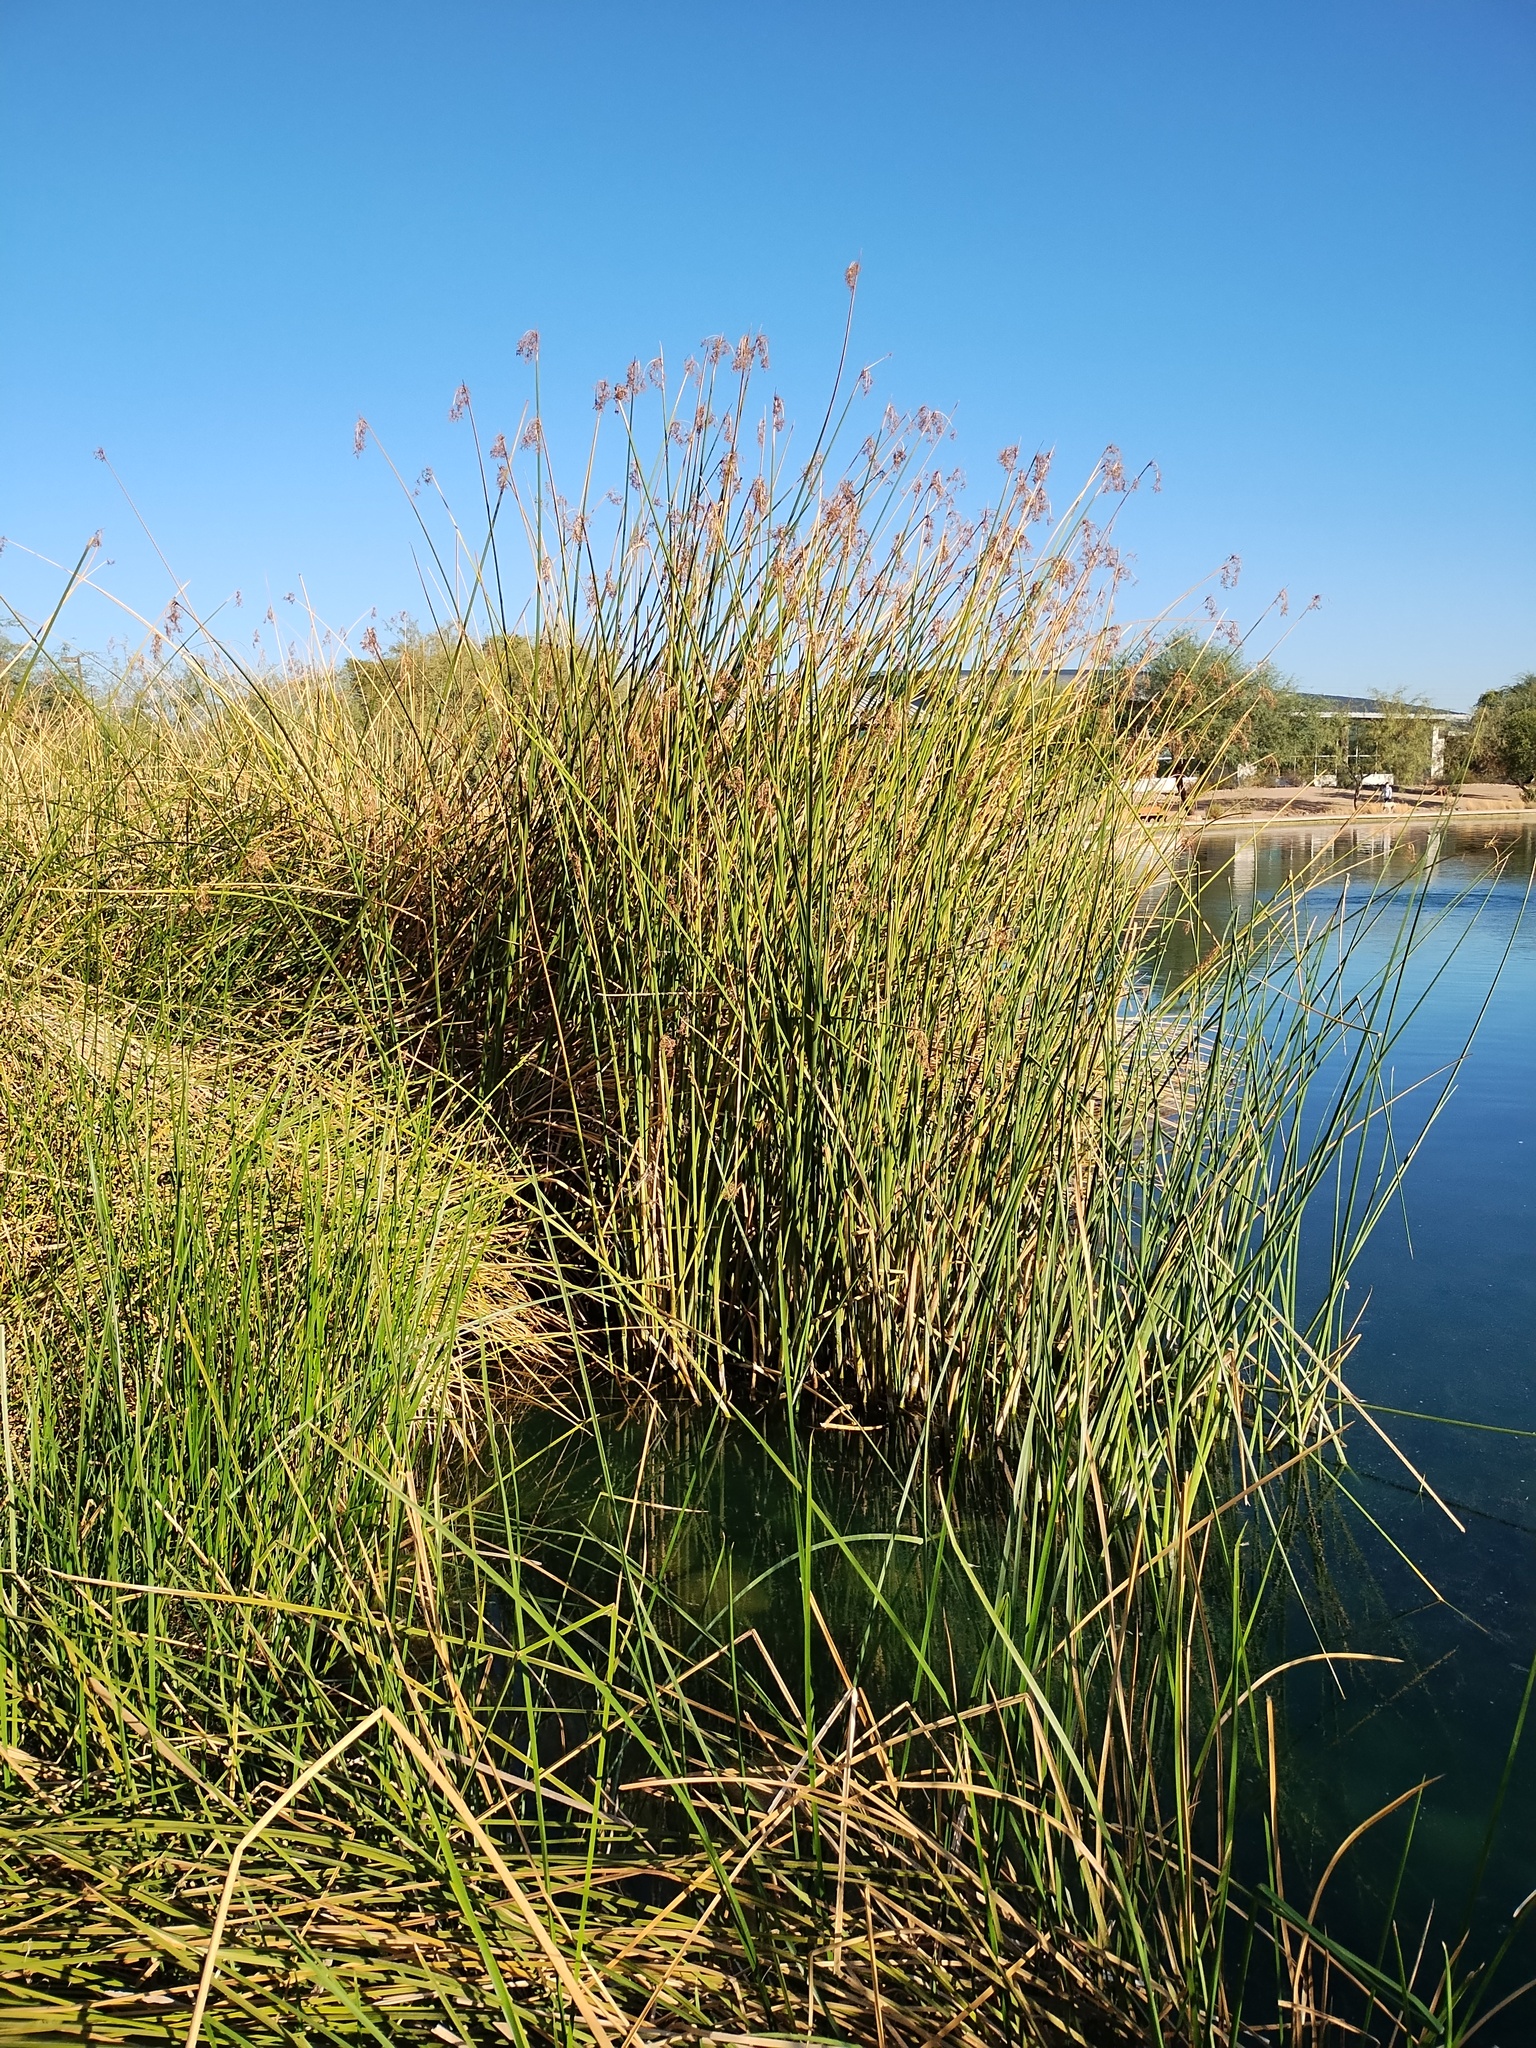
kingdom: Plantae
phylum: Tracheophyta
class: Liliopsida
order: Poales
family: Cyperaceae
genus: Schoenoplectus
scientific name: Schoenoplectus
